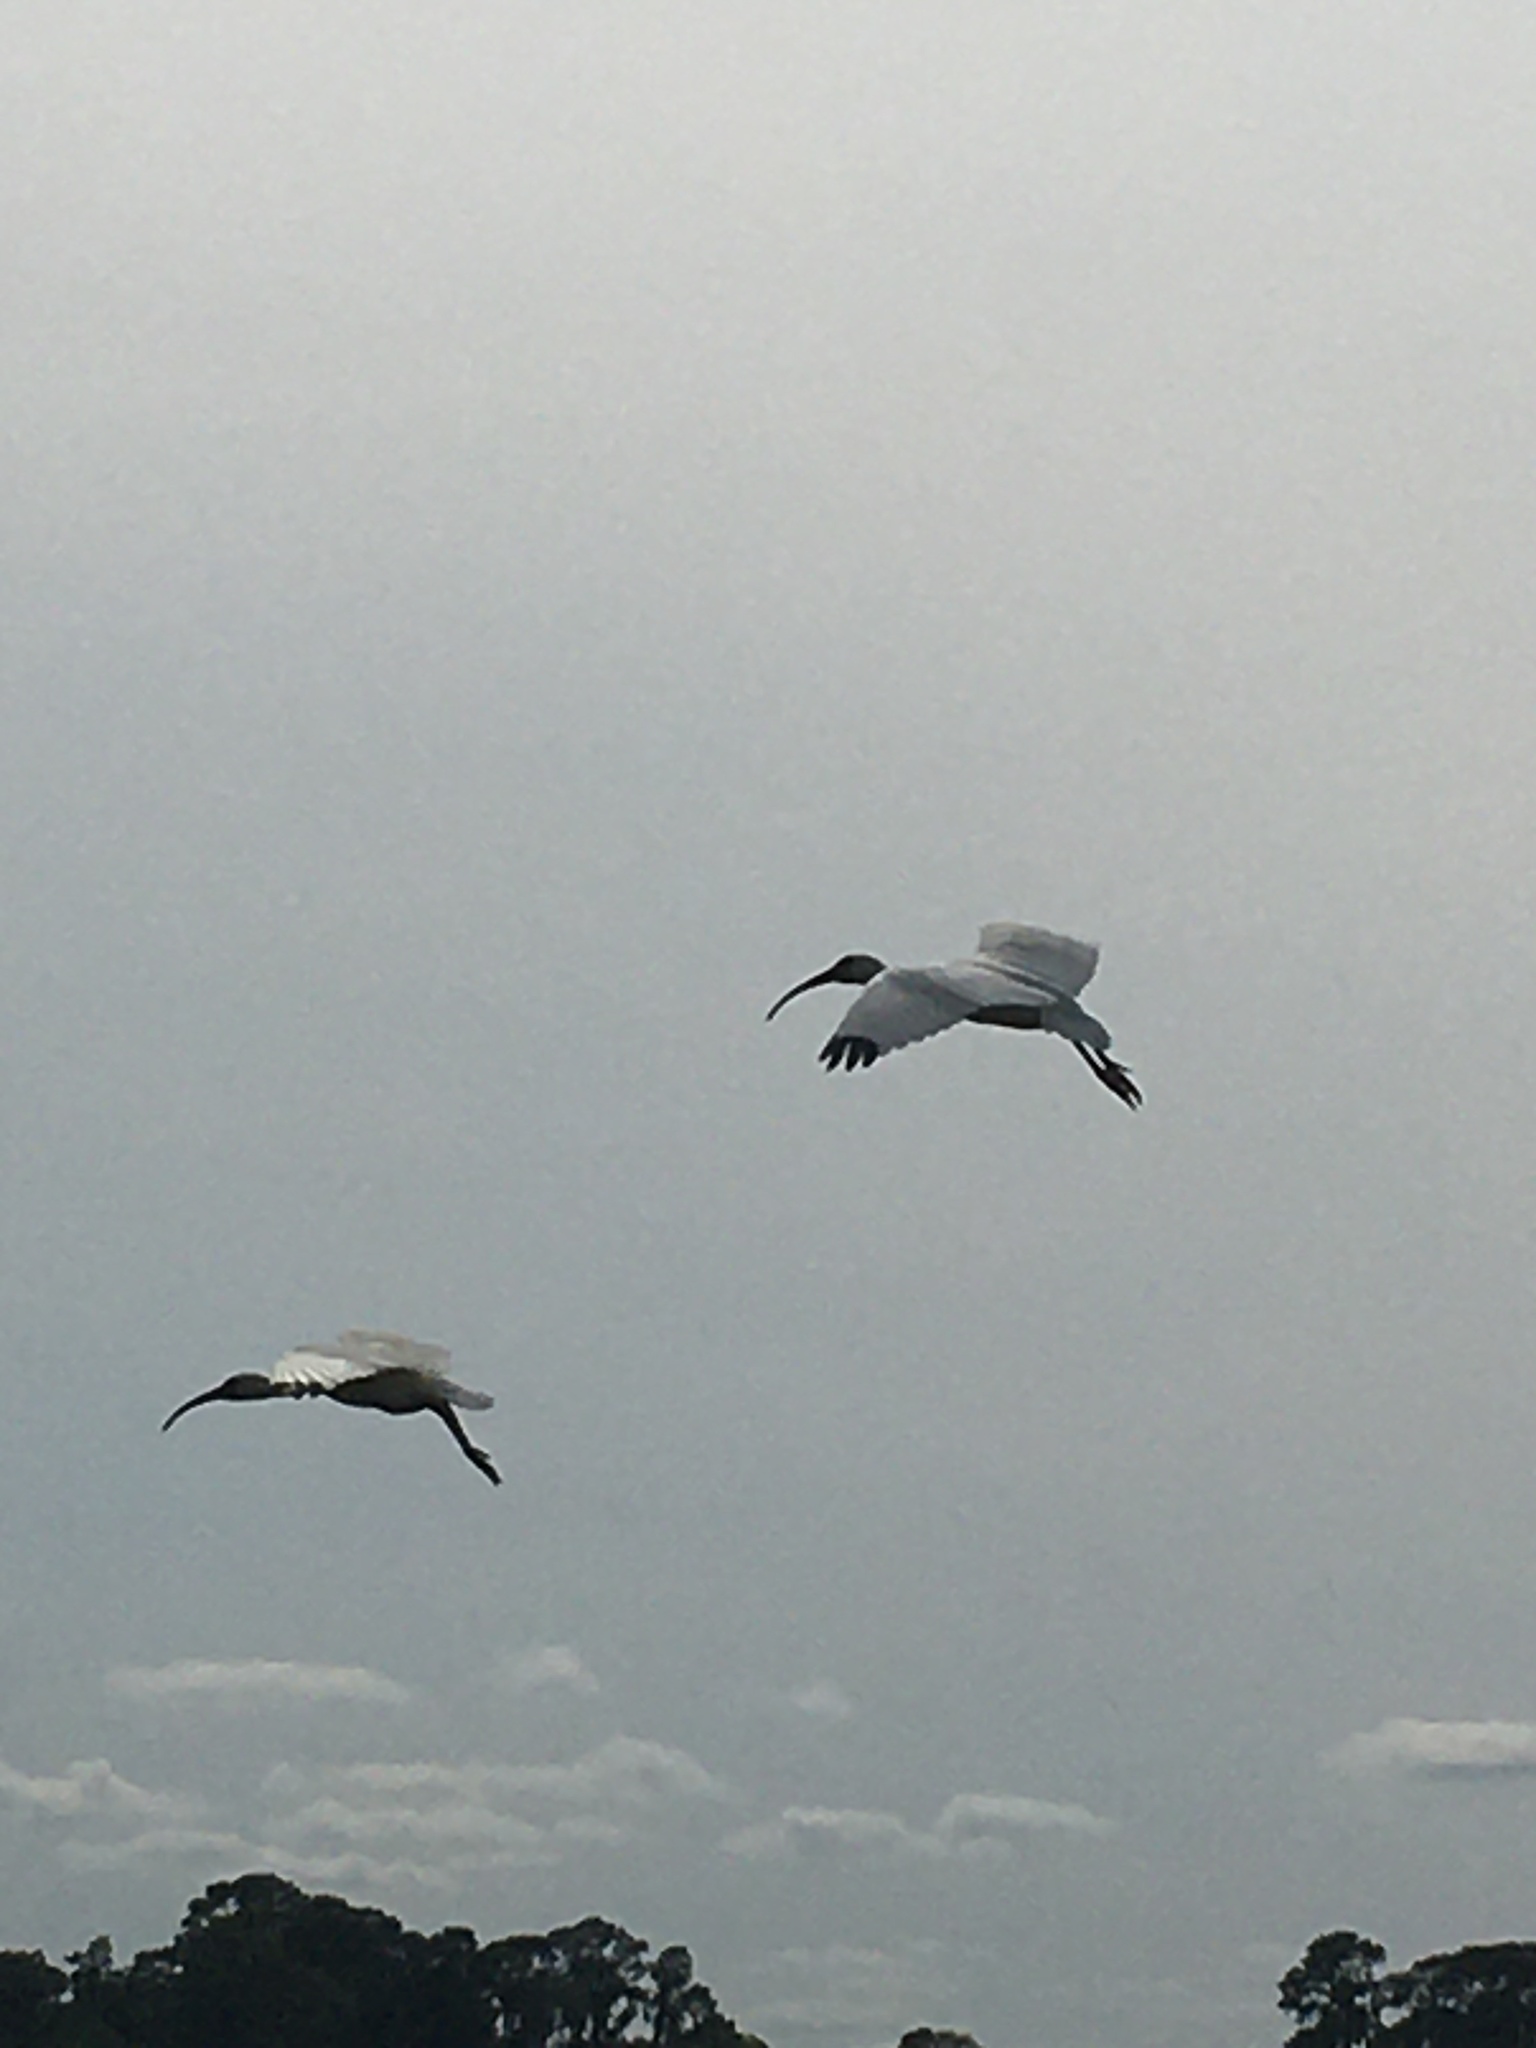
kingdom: Animalia
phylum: Chordata
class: Aves
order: Pelecaniformes
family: Threskiornithidae
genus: Eudocimus
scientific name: Eudocimus albus
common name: White ibis
